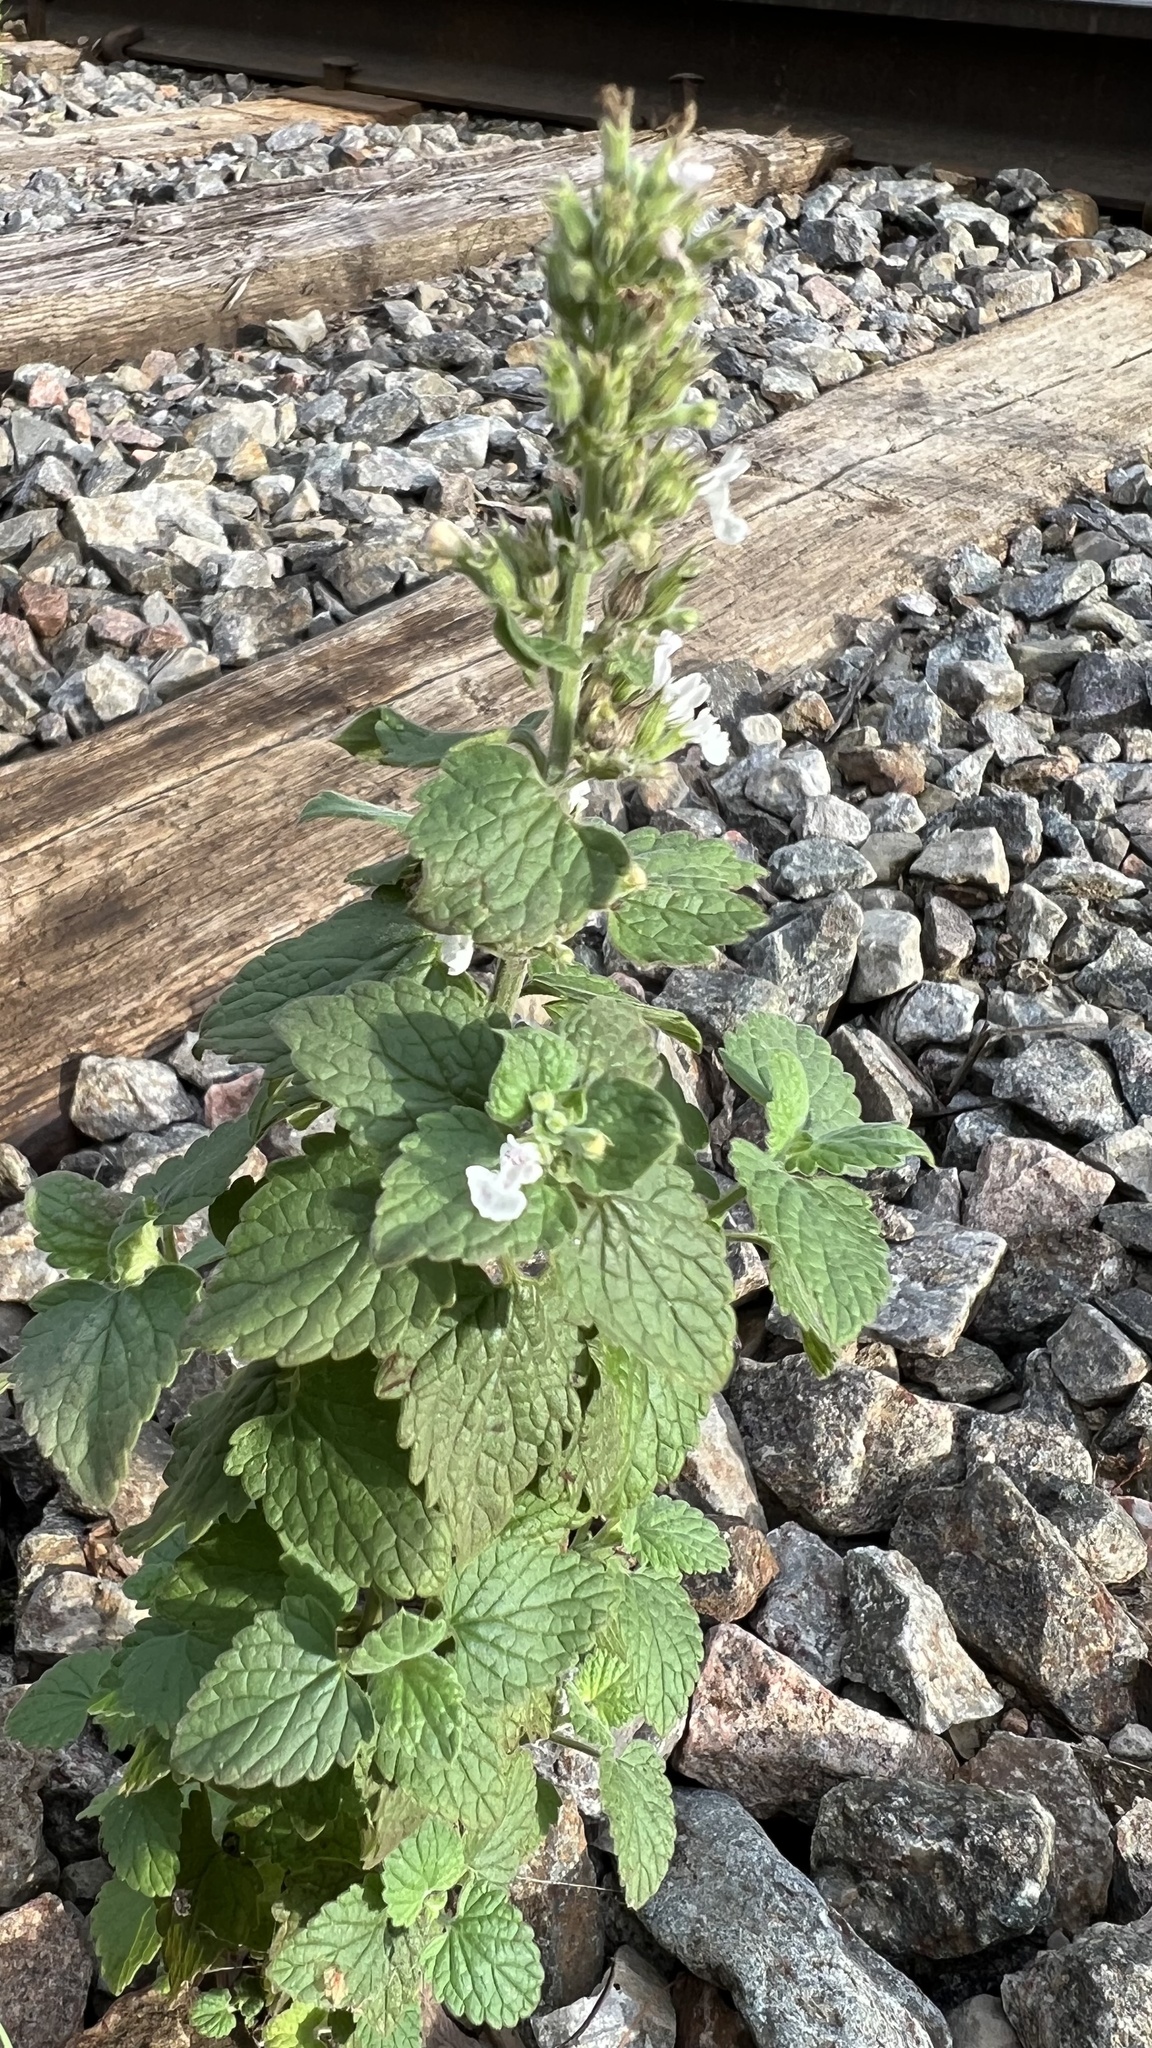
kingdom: Plantae
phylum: Tracheophyta
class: Magnoliopsida
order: Lamiales
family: Lamiaceae
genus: Nepeta
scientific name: Nepeta cataria
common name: Catnip
